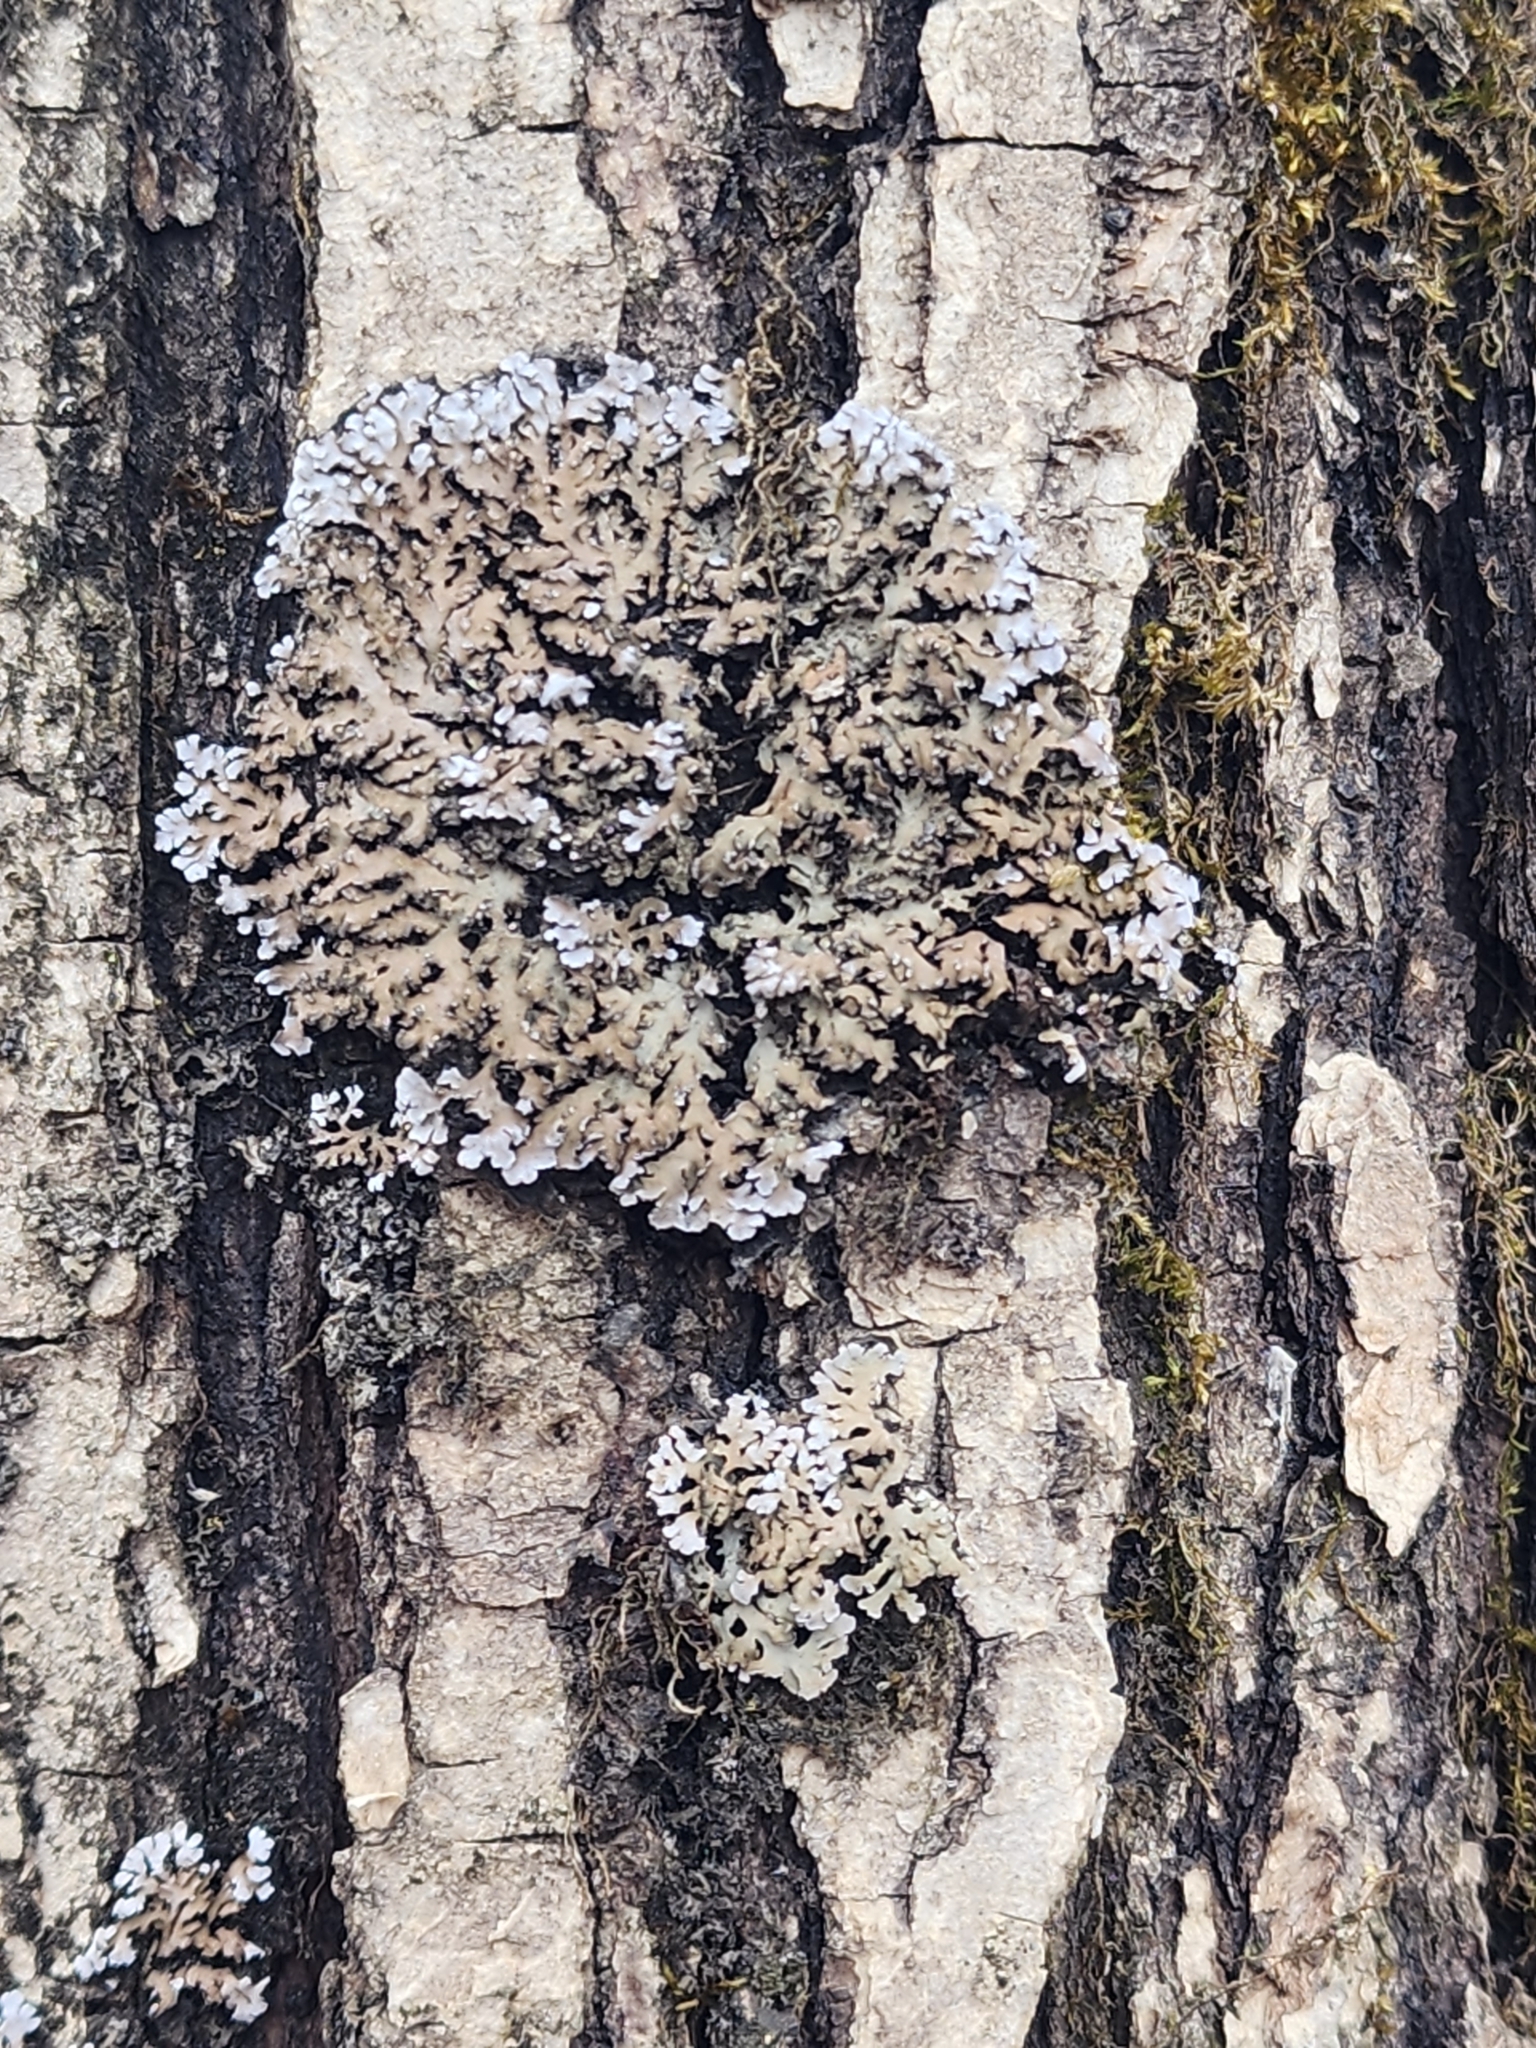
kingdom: Fungi
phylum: Ascomycota
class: Lecanoromycetes
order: Caliciales
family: Physciaceae
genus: Physconia
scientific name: Physconia detersa
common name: Bottlebrush frost lichen
